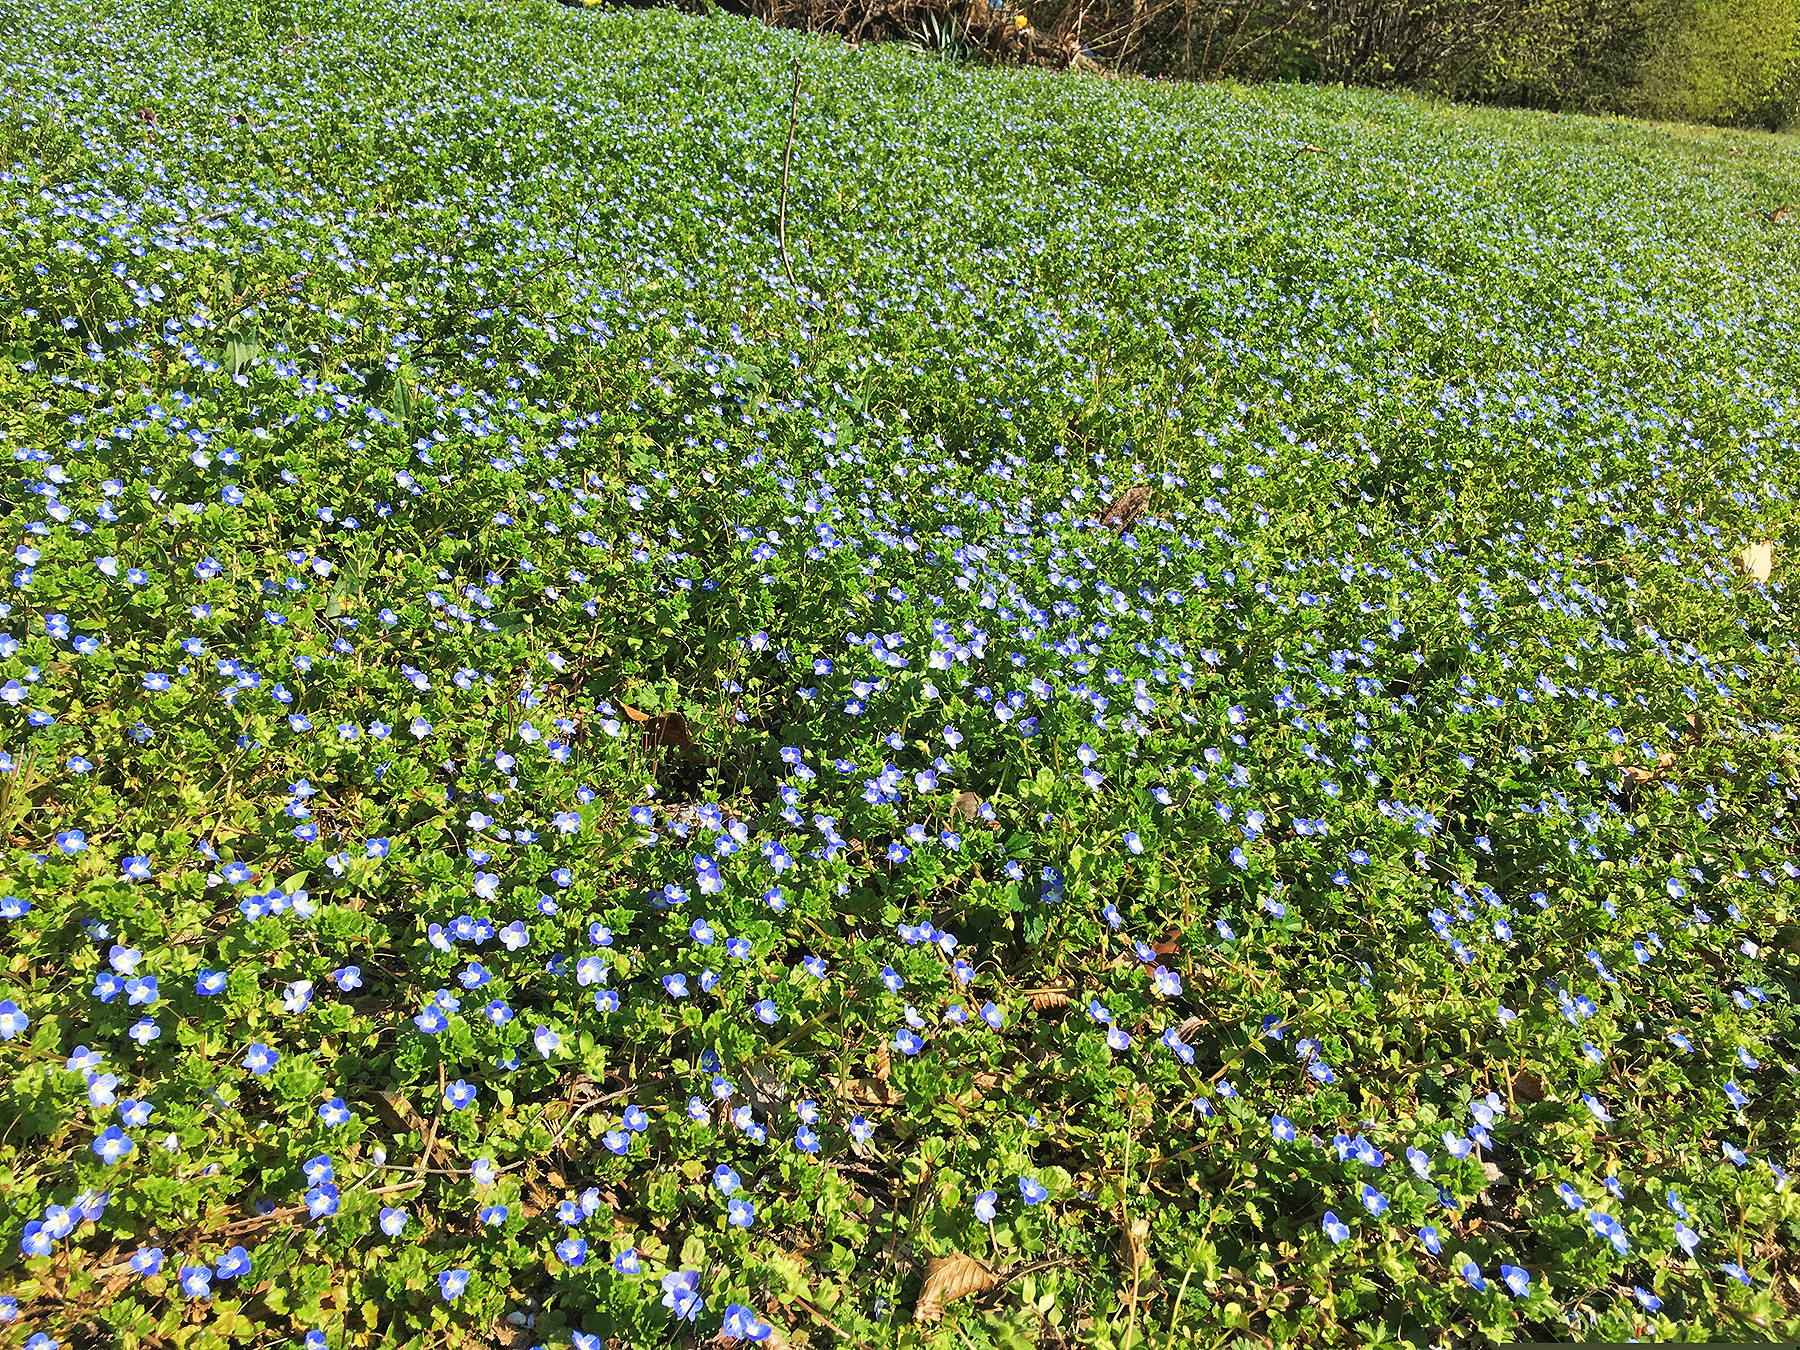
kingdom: Plantae
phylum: Tracheophyta
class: Magnoliopsida
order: Lamiales
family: Plantaginaceae
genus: Veronica
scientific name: Veronica persica
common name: Common field-speedwell
